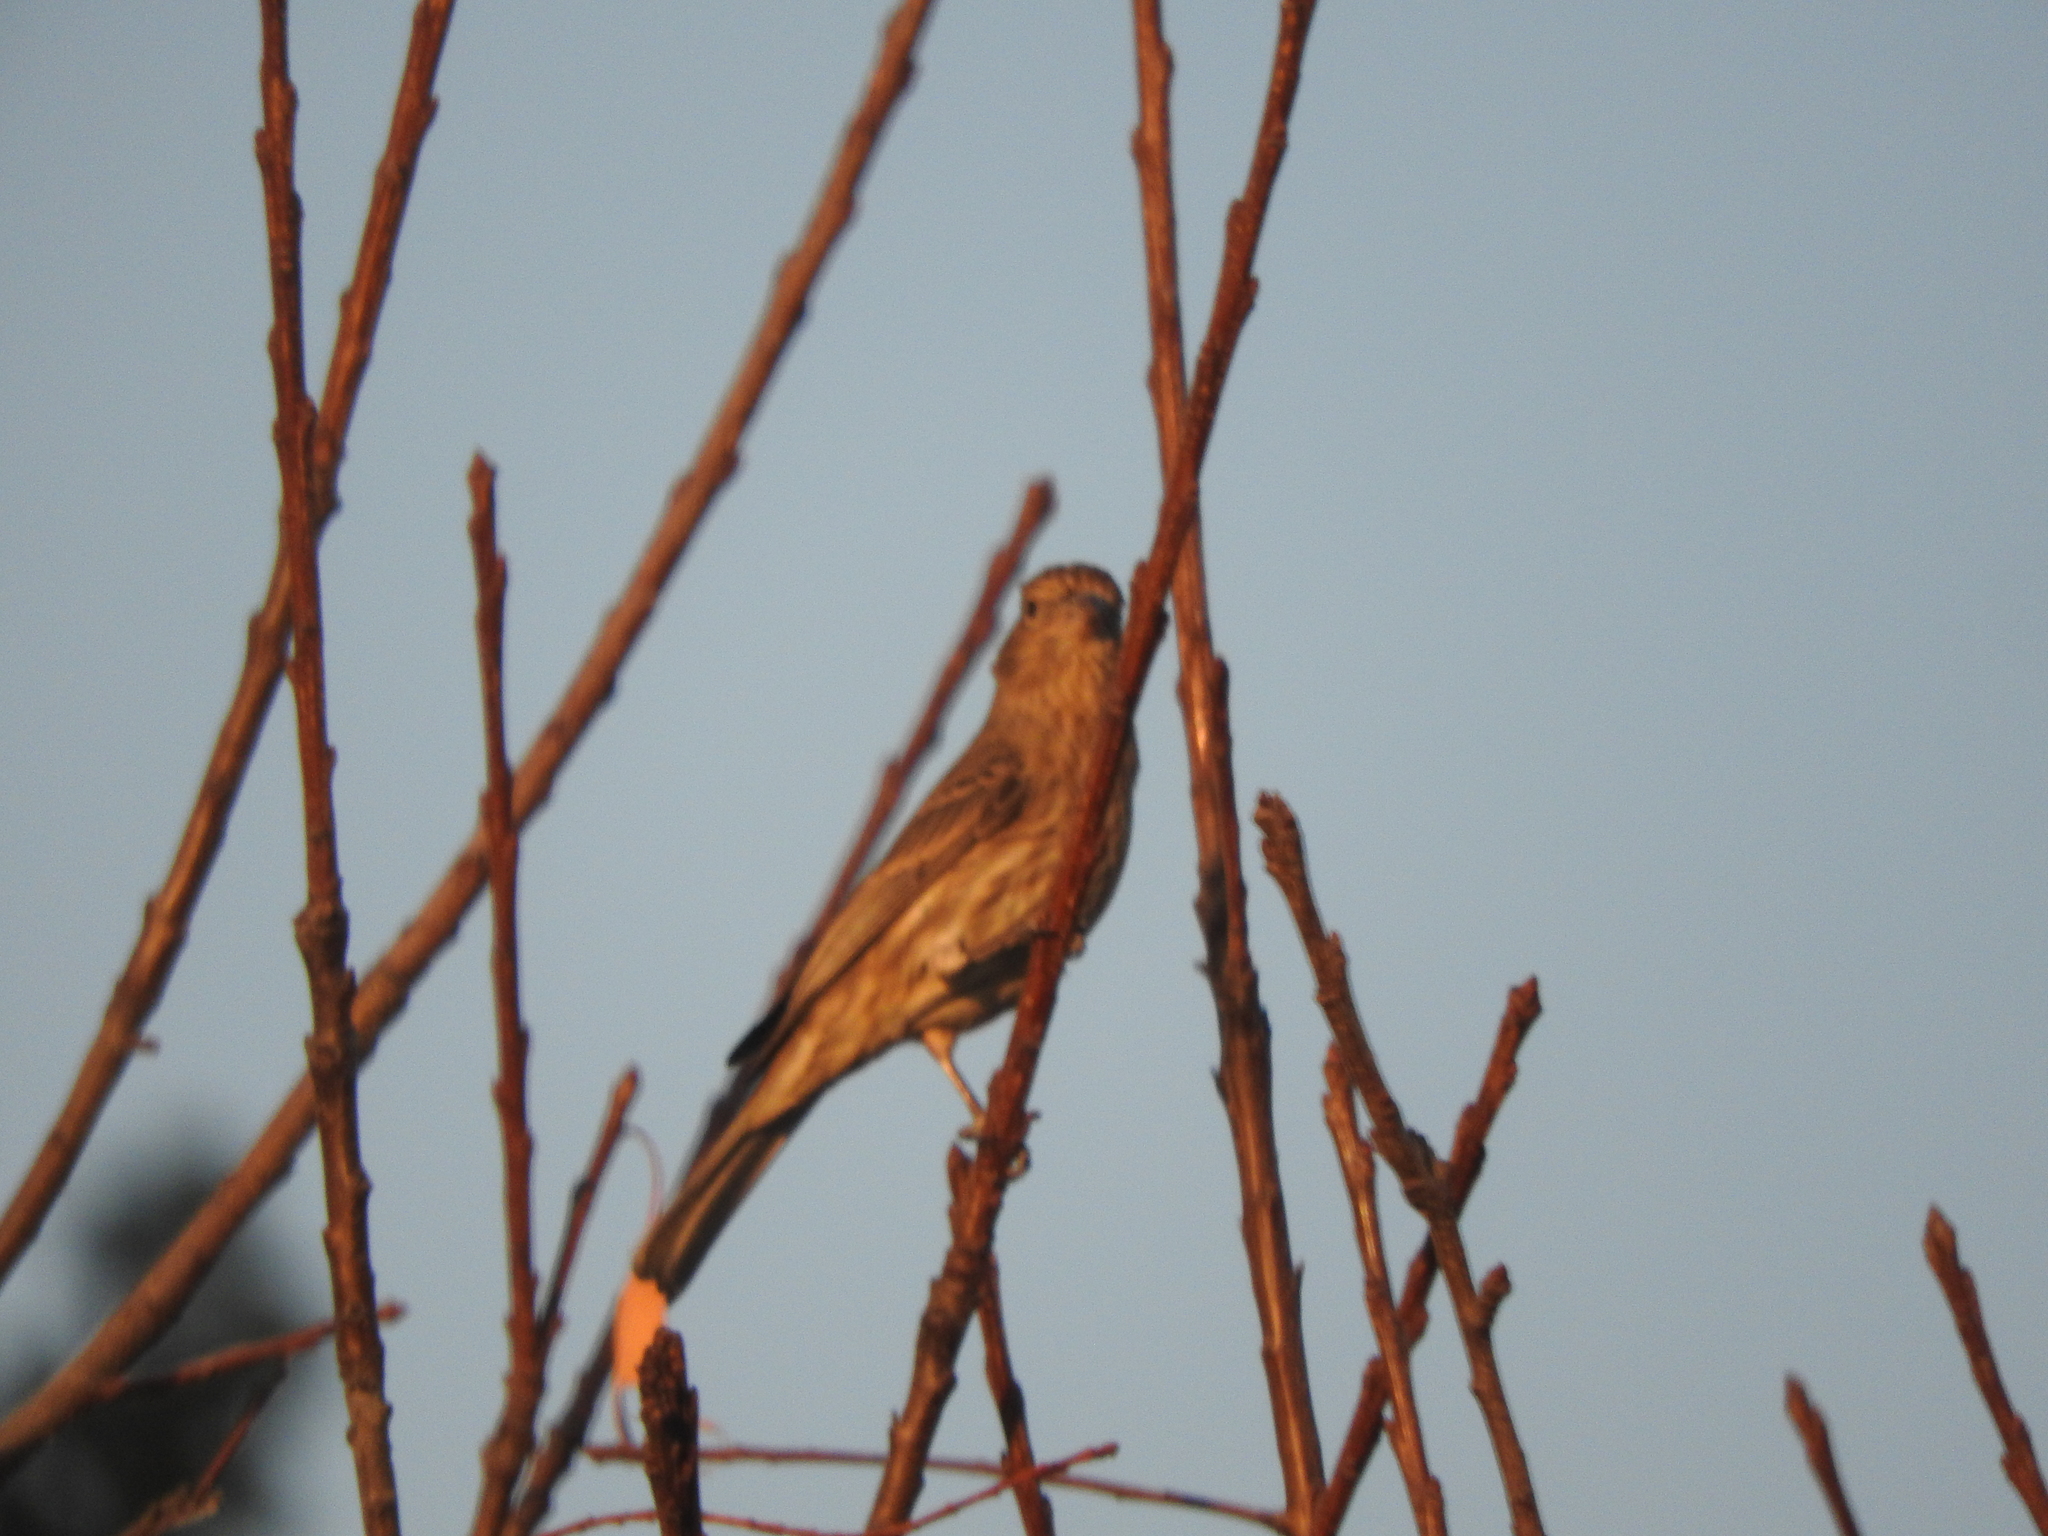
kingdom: Animalia
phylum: Chordata
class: Aves
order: Passeriformes
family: Fringillidae
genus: Haemorhous
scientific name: Haemorhous mexicanus
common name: House finch
